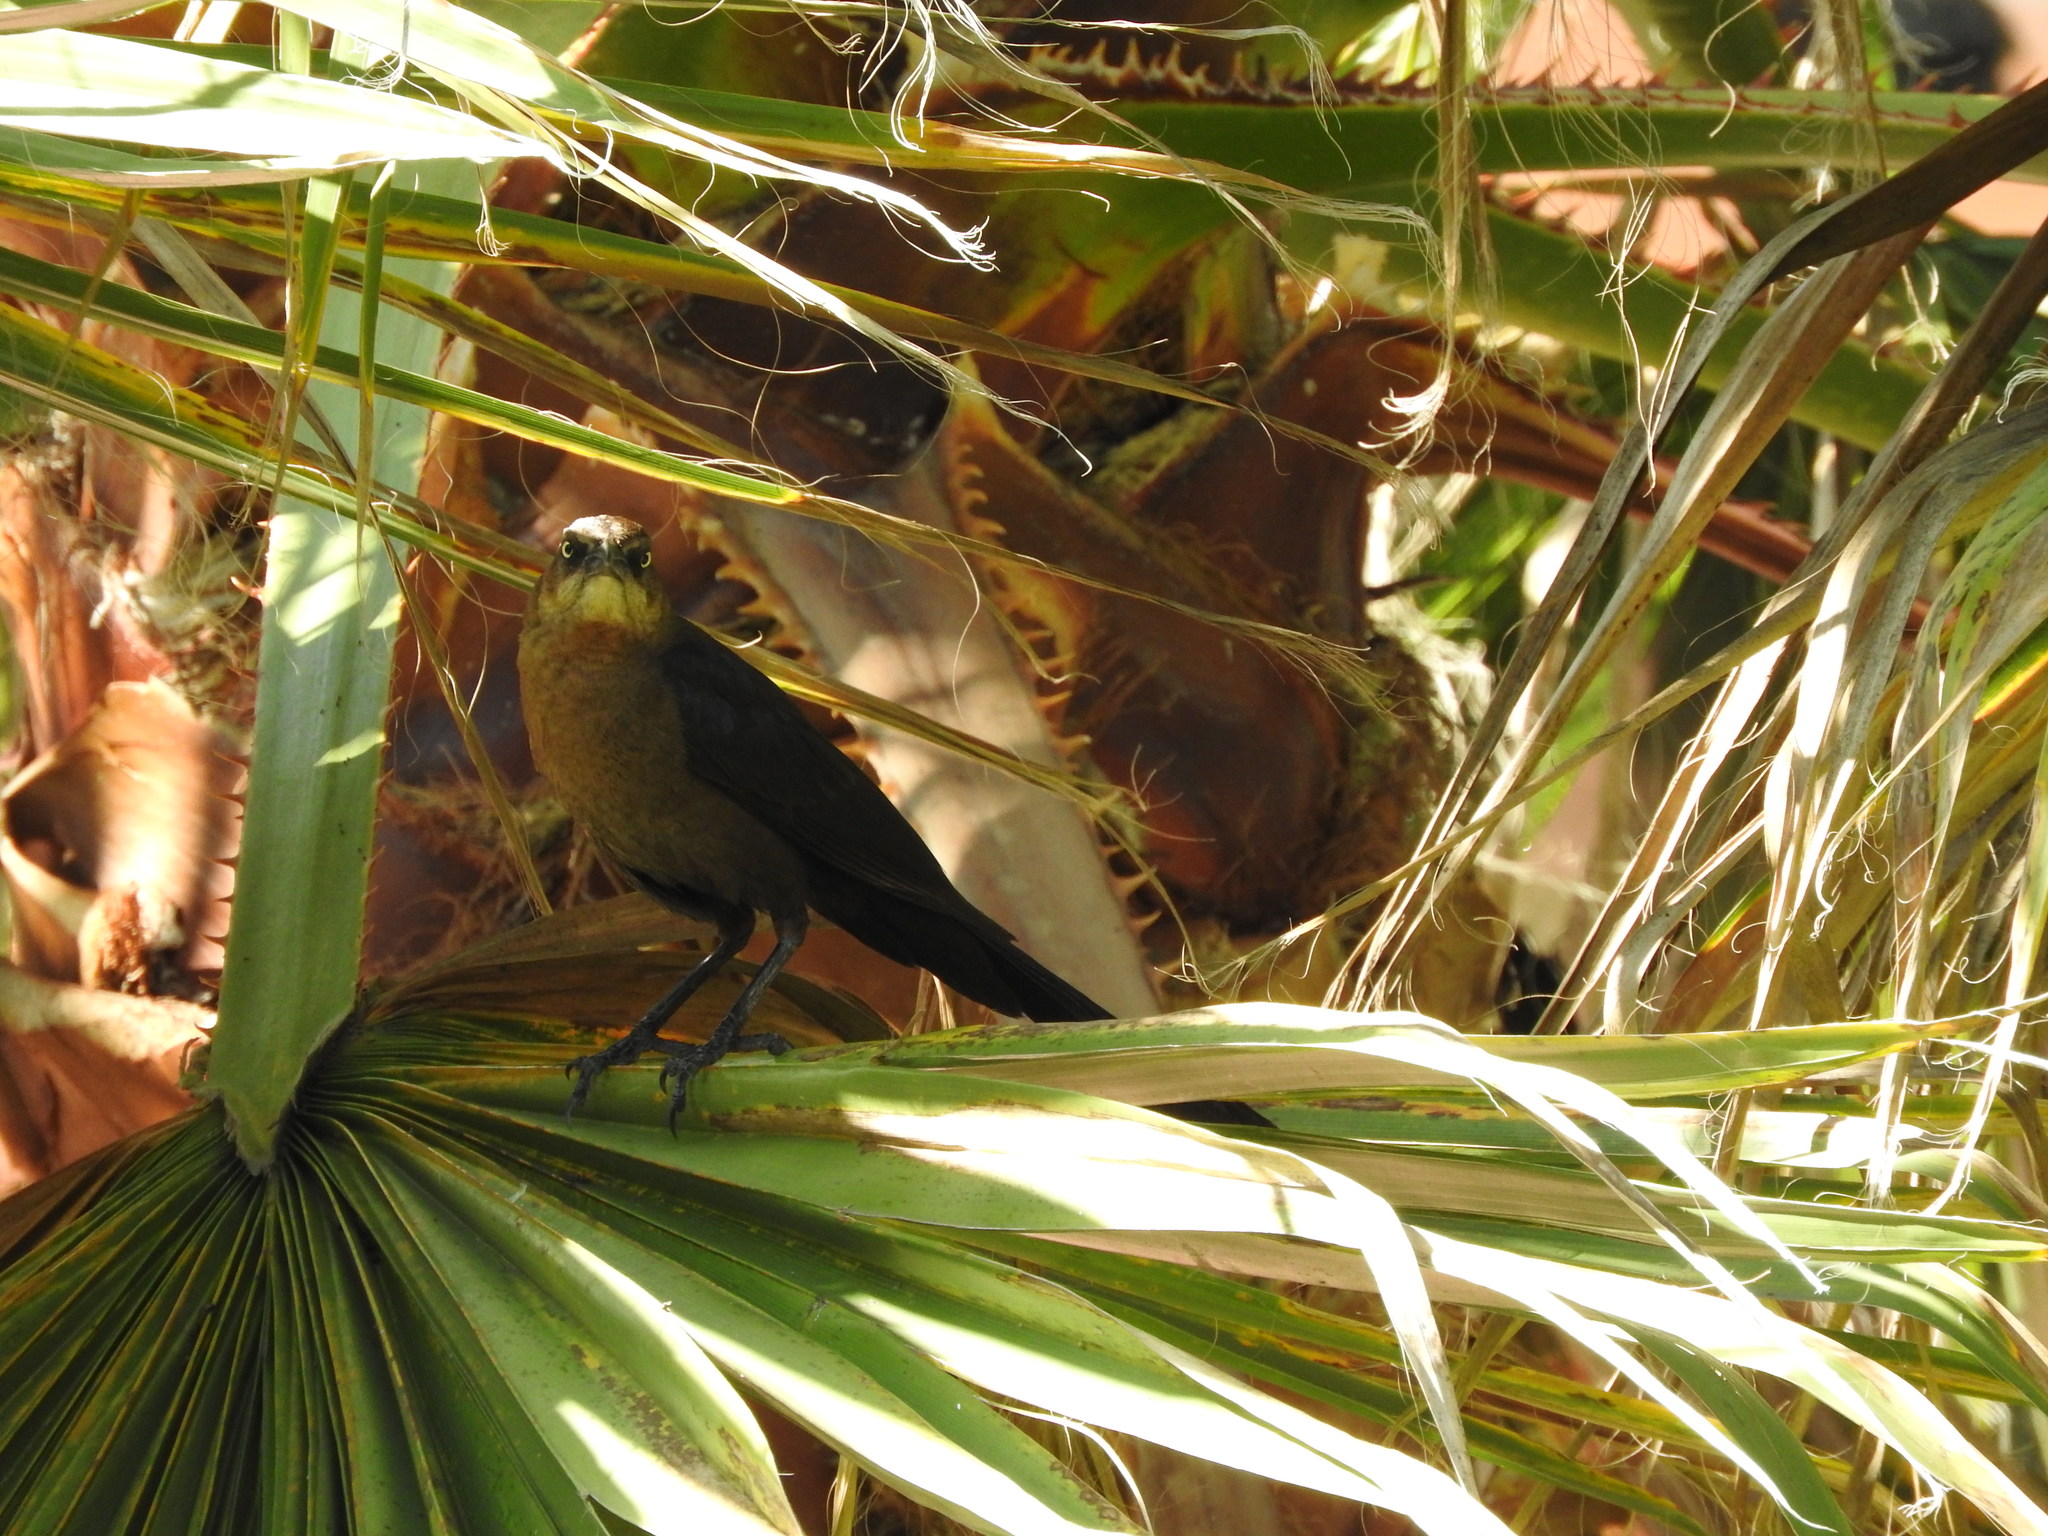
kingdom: Animalia
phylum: Chordata
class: Aves
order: Passeriformes
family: Icteridae
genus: Quiscalus
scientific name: Quiscalus mexicanus
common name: Great-tailed grackle
